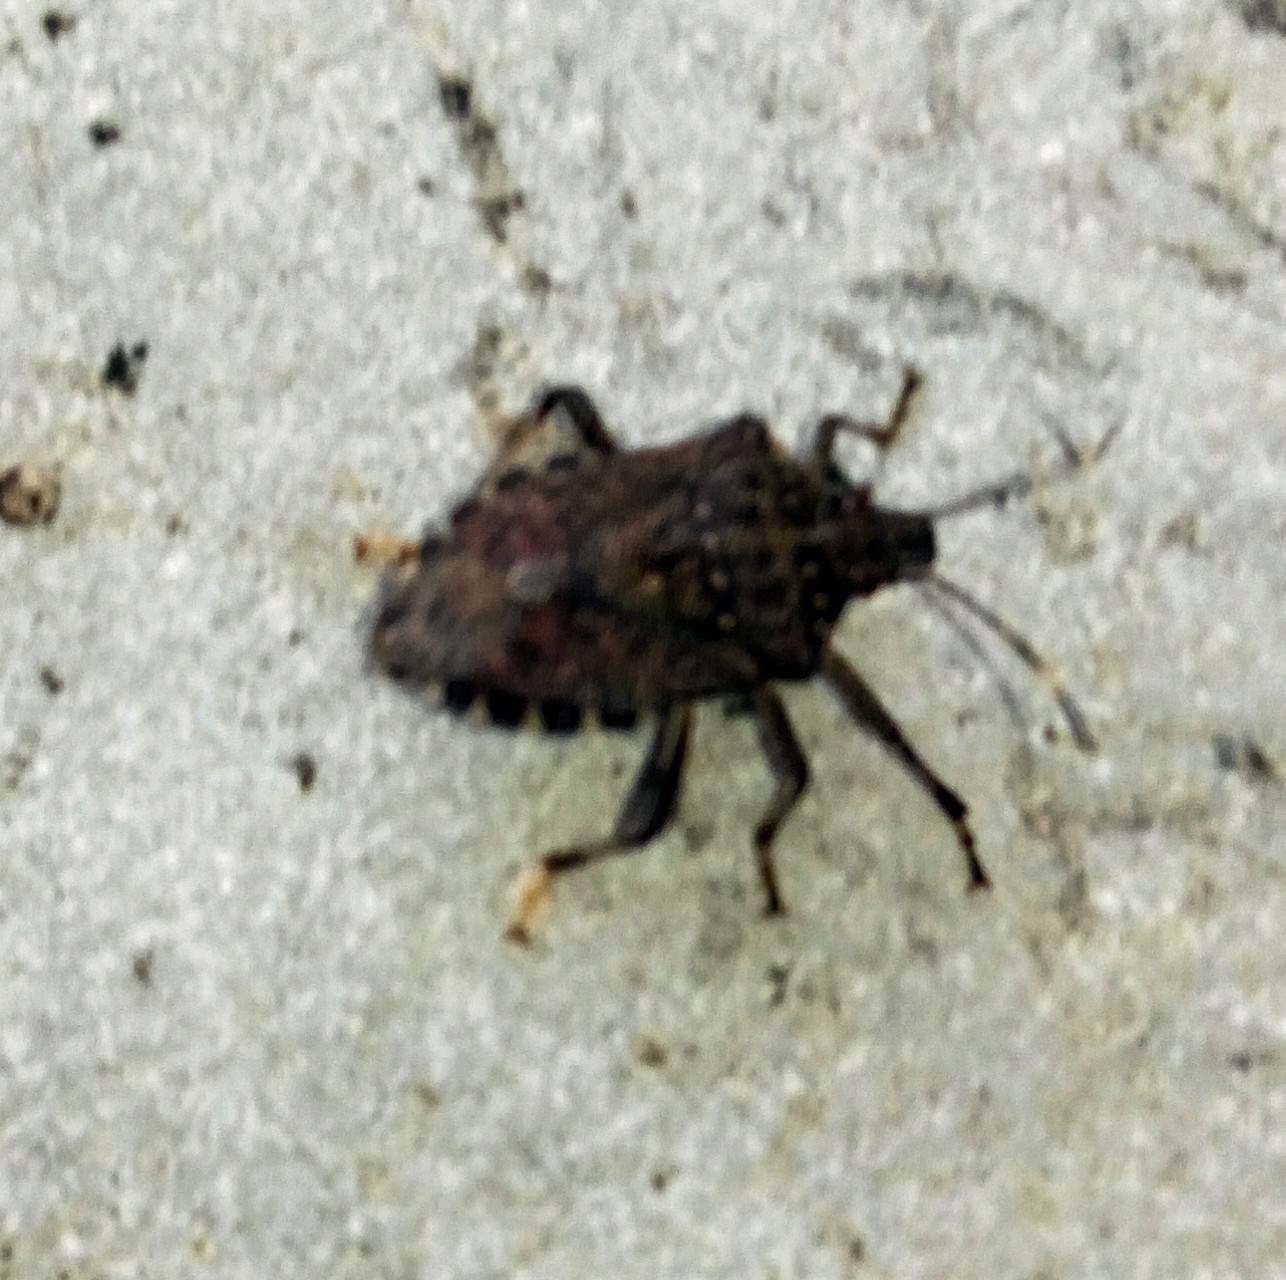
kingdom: Animalia
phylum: Arthropoda
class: Insecta
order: Hemiptera
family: Pentatomidae
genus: Halyomorpha
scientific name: Halyomorpha halys
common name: Brown marmorated stink bug
